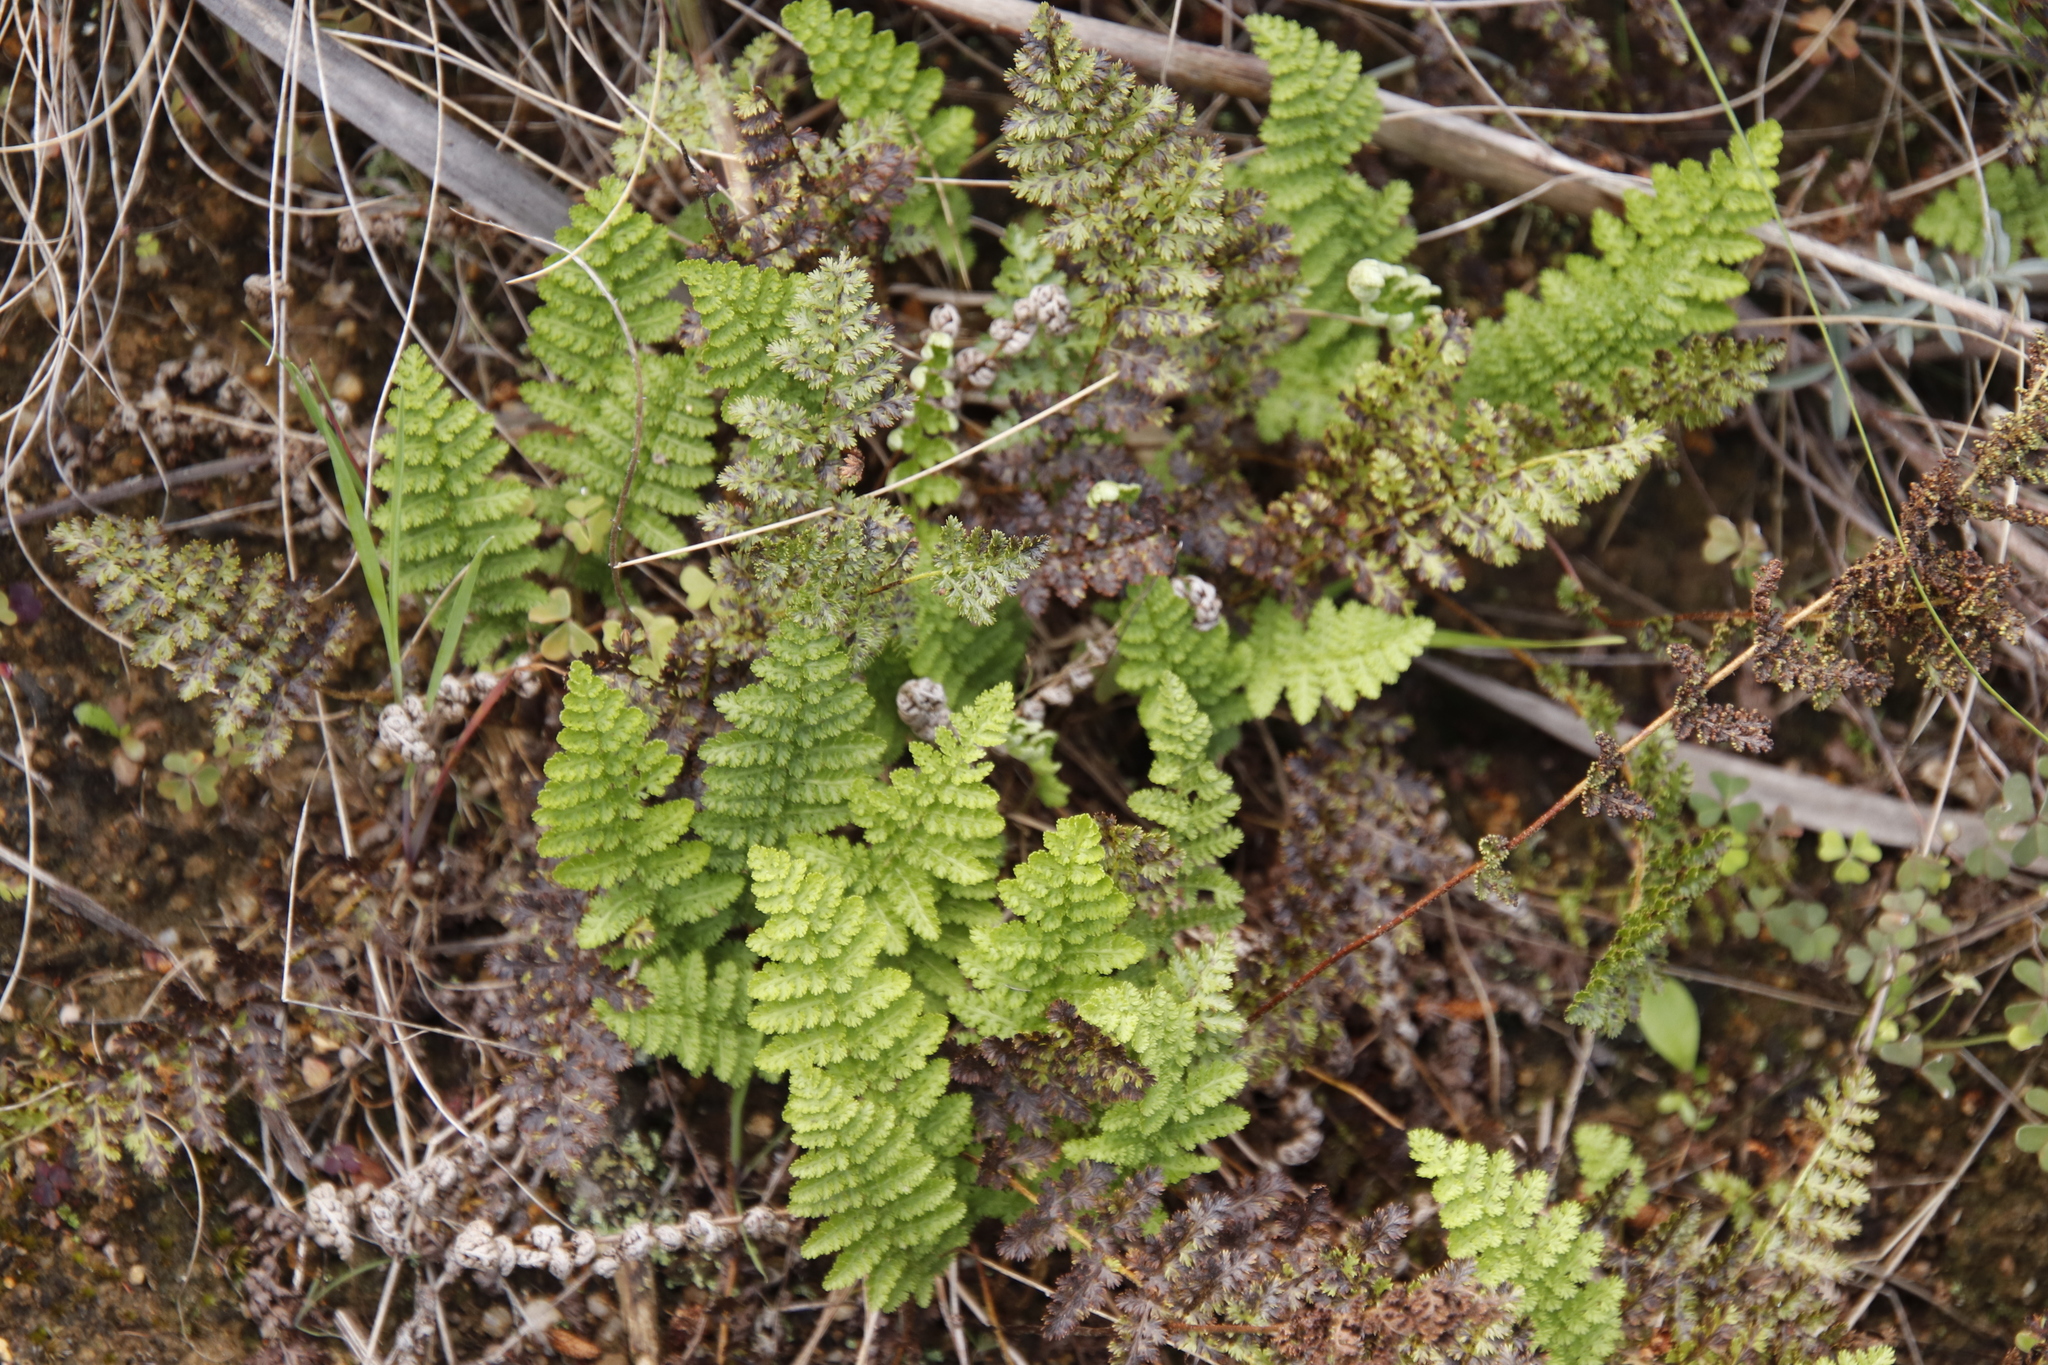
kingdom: Plantae
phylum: Tracheophyta
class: Polypodiopsida
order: Schizaeales
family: Anemiaceae
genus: Anemia
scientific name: Anemia caffrorum
